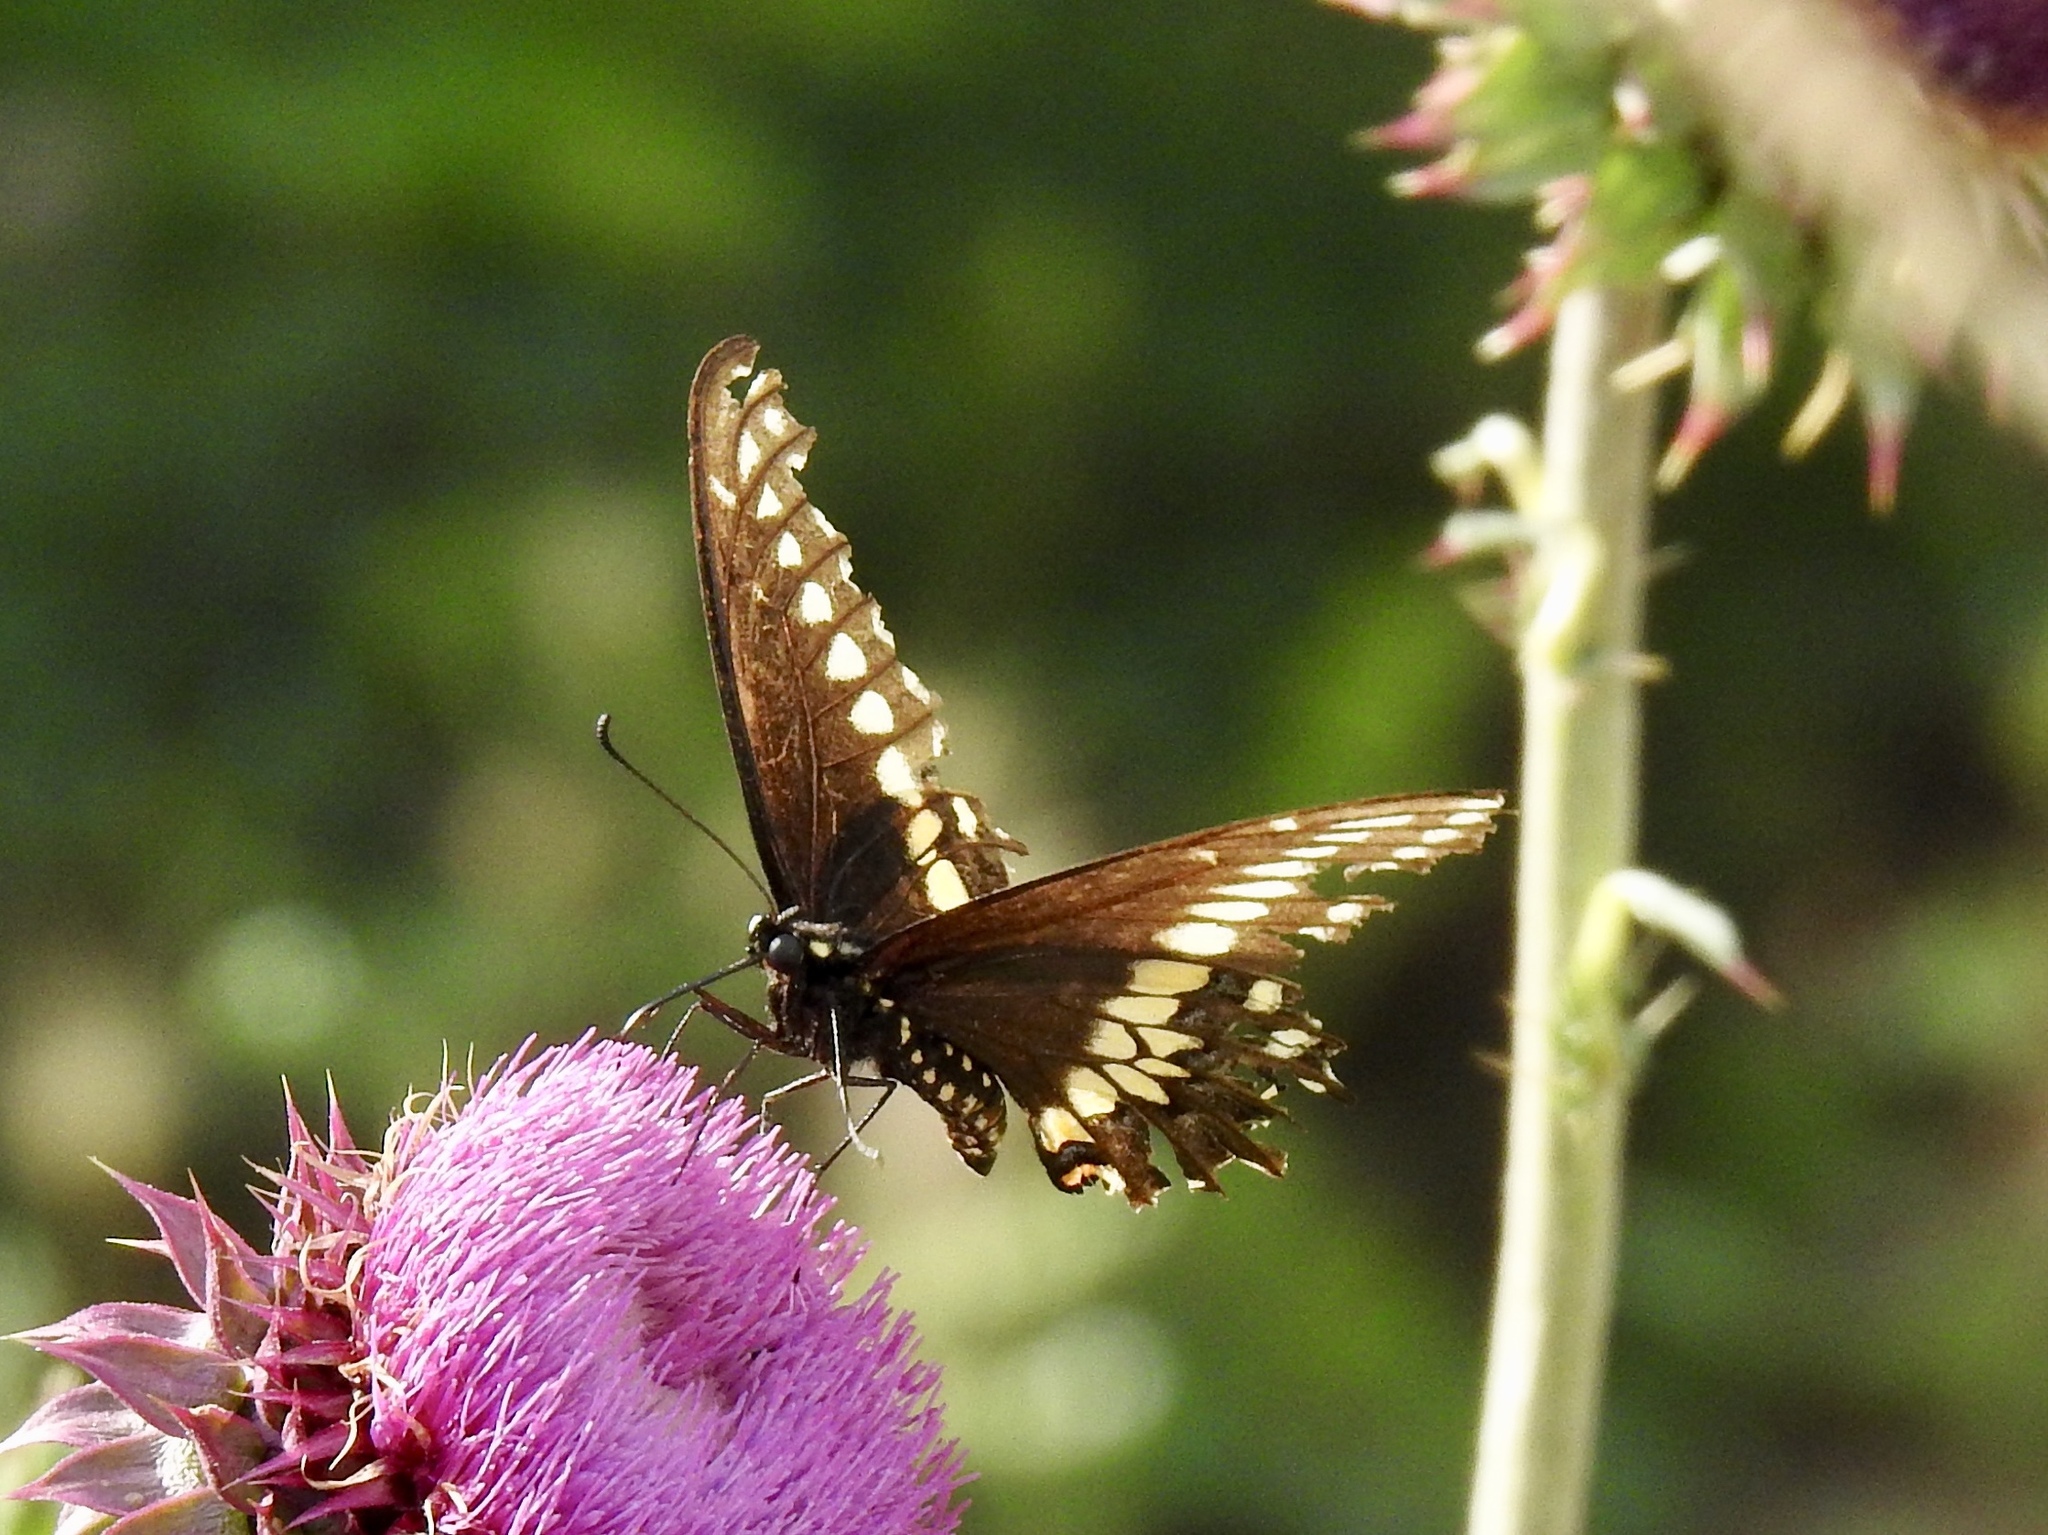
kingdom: Animalia
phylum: Arthropoda
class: Insecta
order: Lepidoptera
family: Papilionidae
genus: Papilio
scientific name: Papilio polyxenes
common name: Black swallowtail
